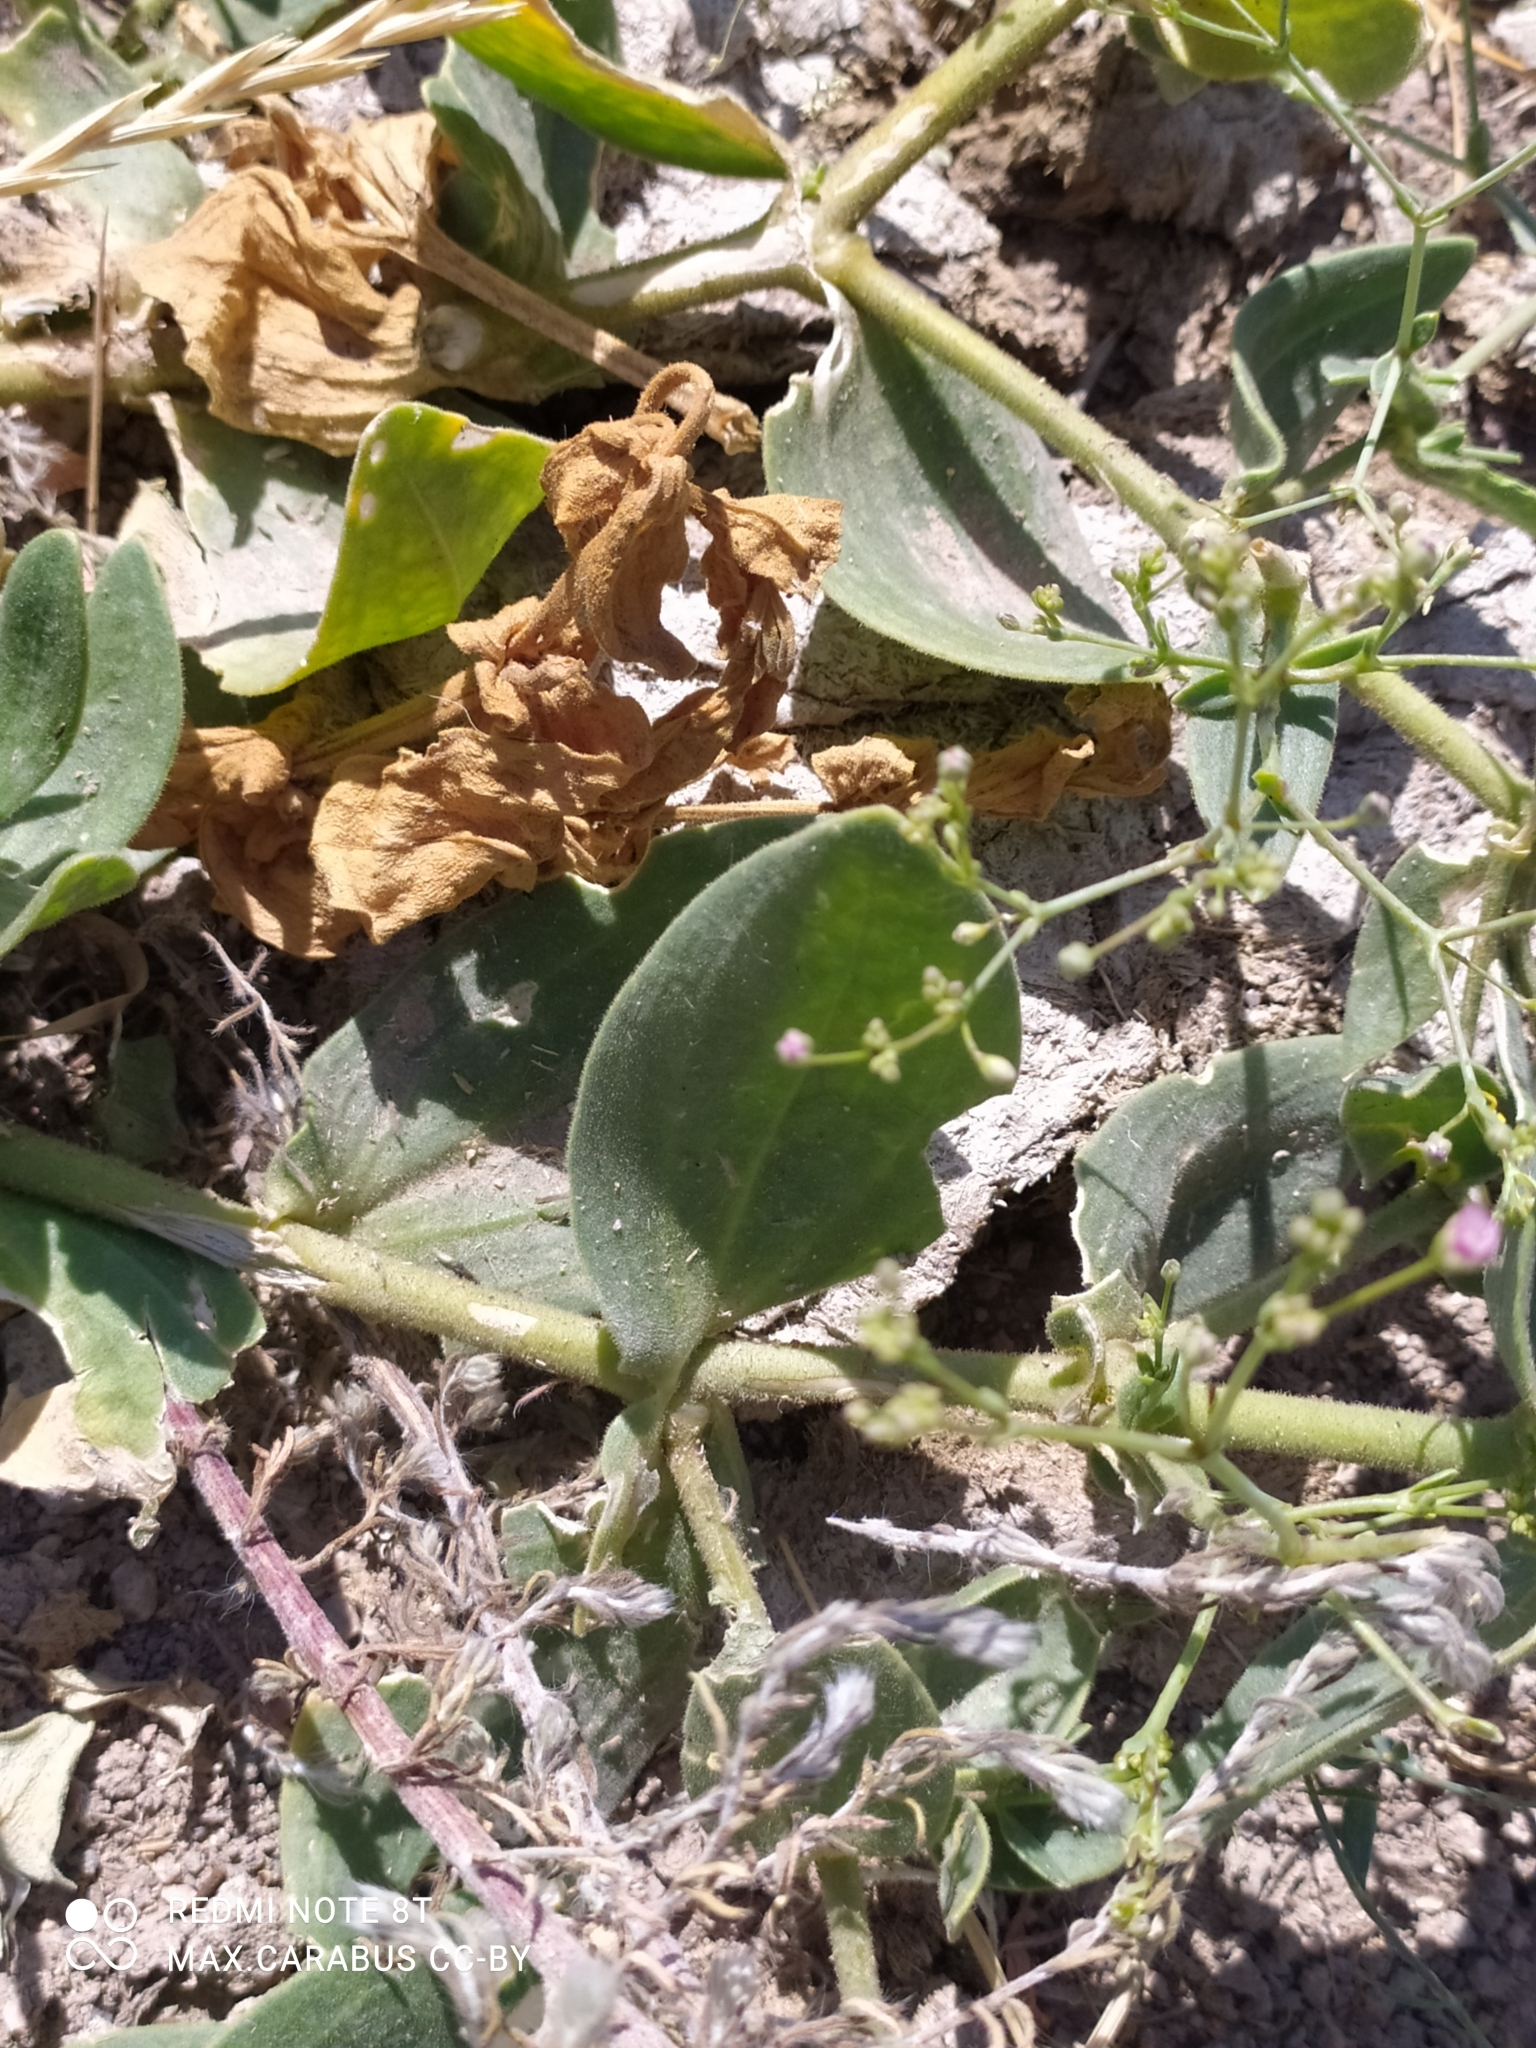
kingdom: Plantae
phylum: Tracheophyta
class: Magnoliopsida
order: Caryophyllales
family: Caryophyllaceae
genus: Gypsophila
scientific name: Gypsophila perfoliata
